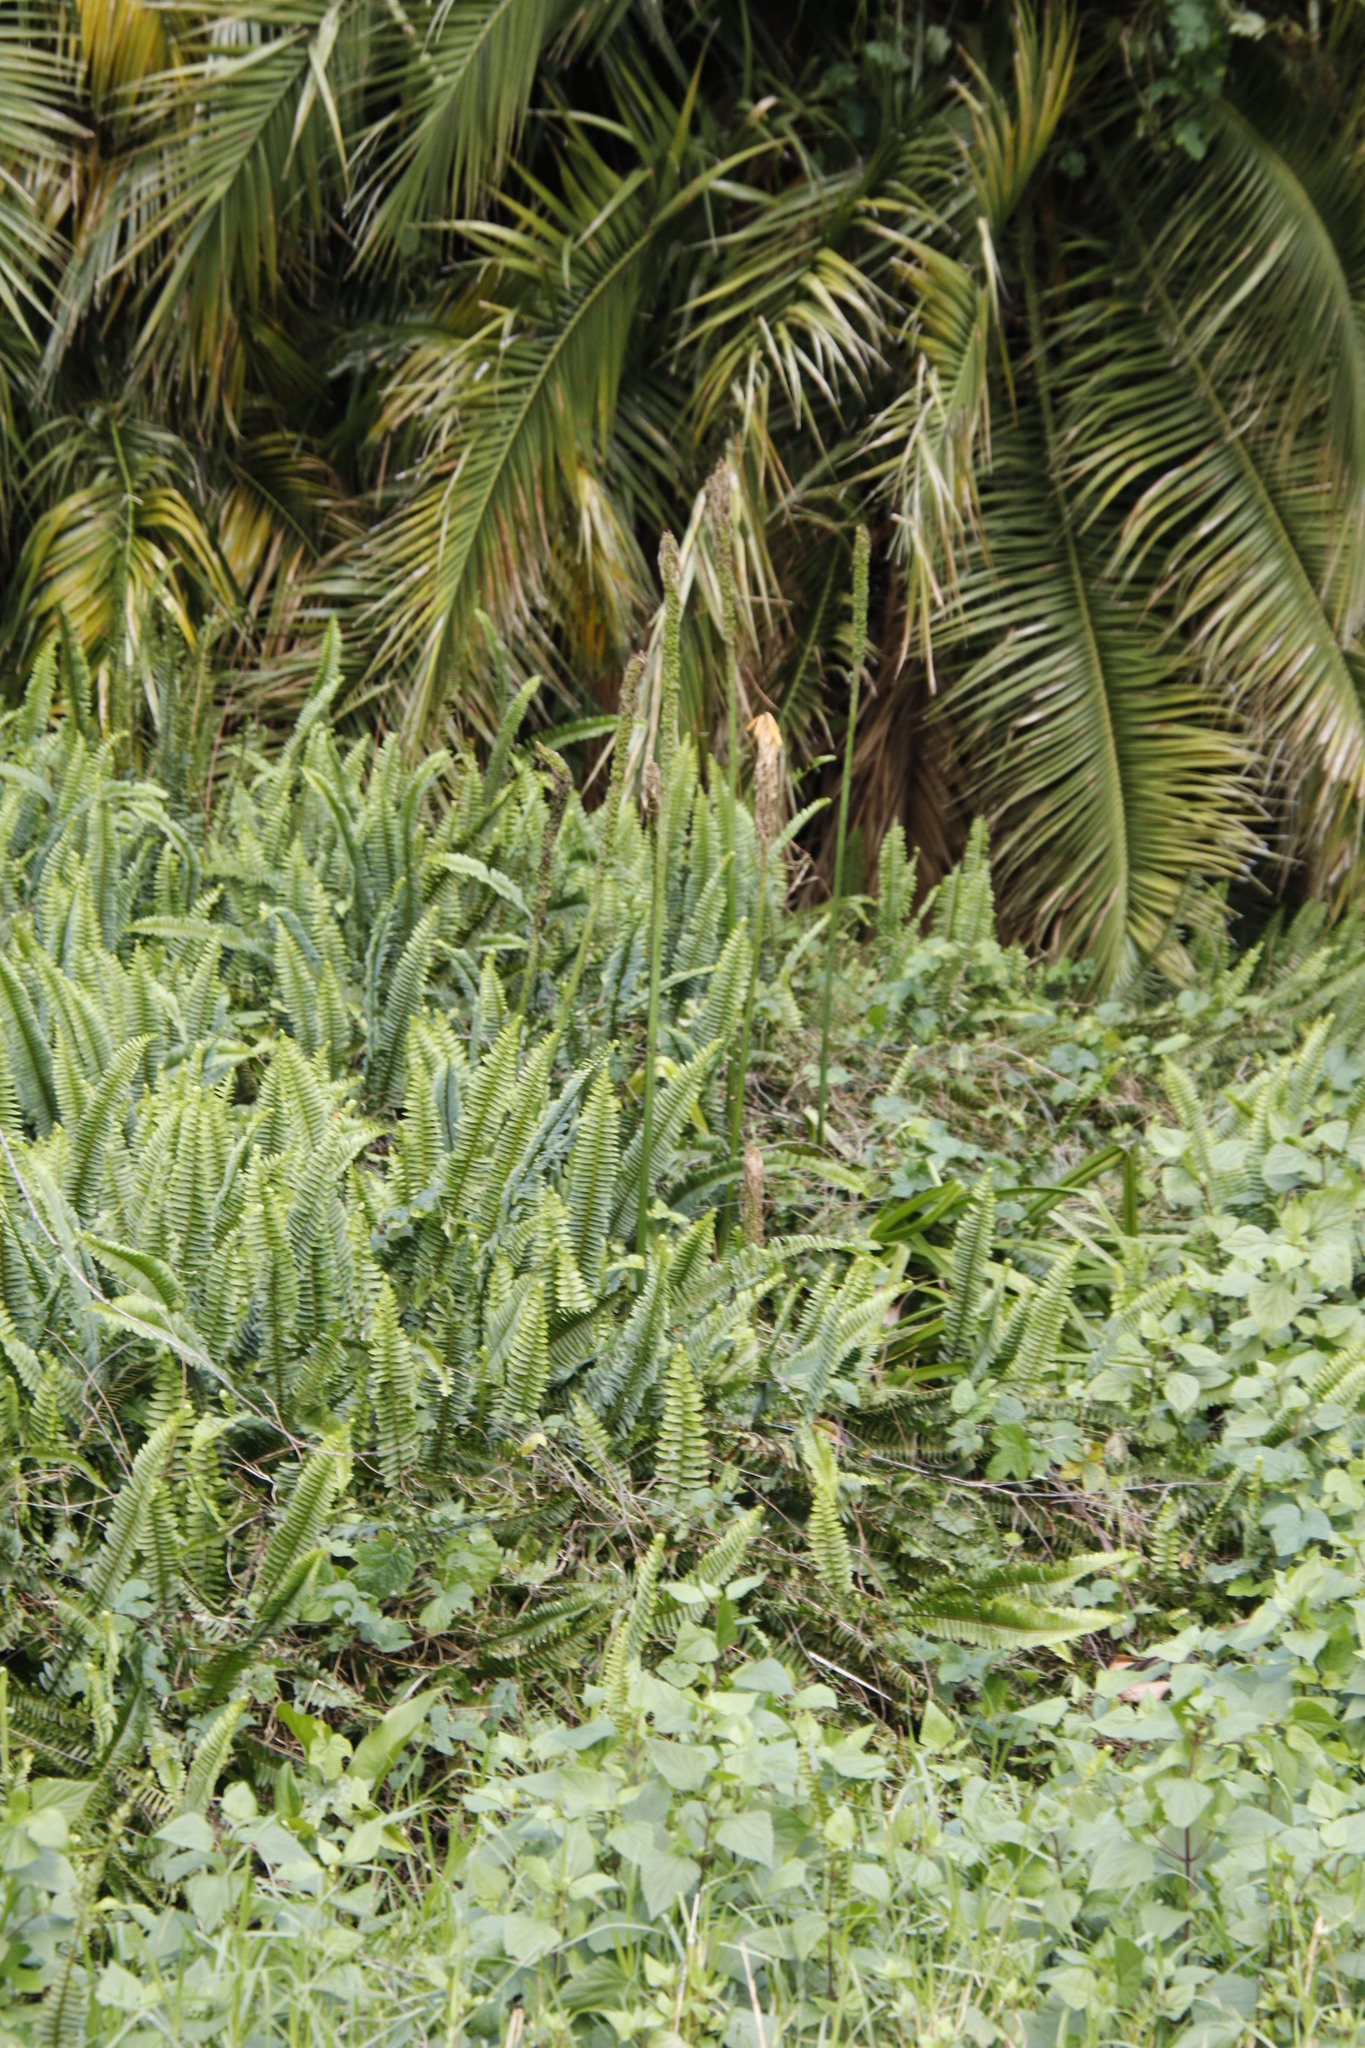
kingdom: Plantae
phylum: Tracheophyta
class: Polypodiopsida
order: Polypodiales
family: Nephrolepidaceae
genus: Nephrolepis
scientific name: Nephrolepis cordifolia
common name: Narrow swordfern
